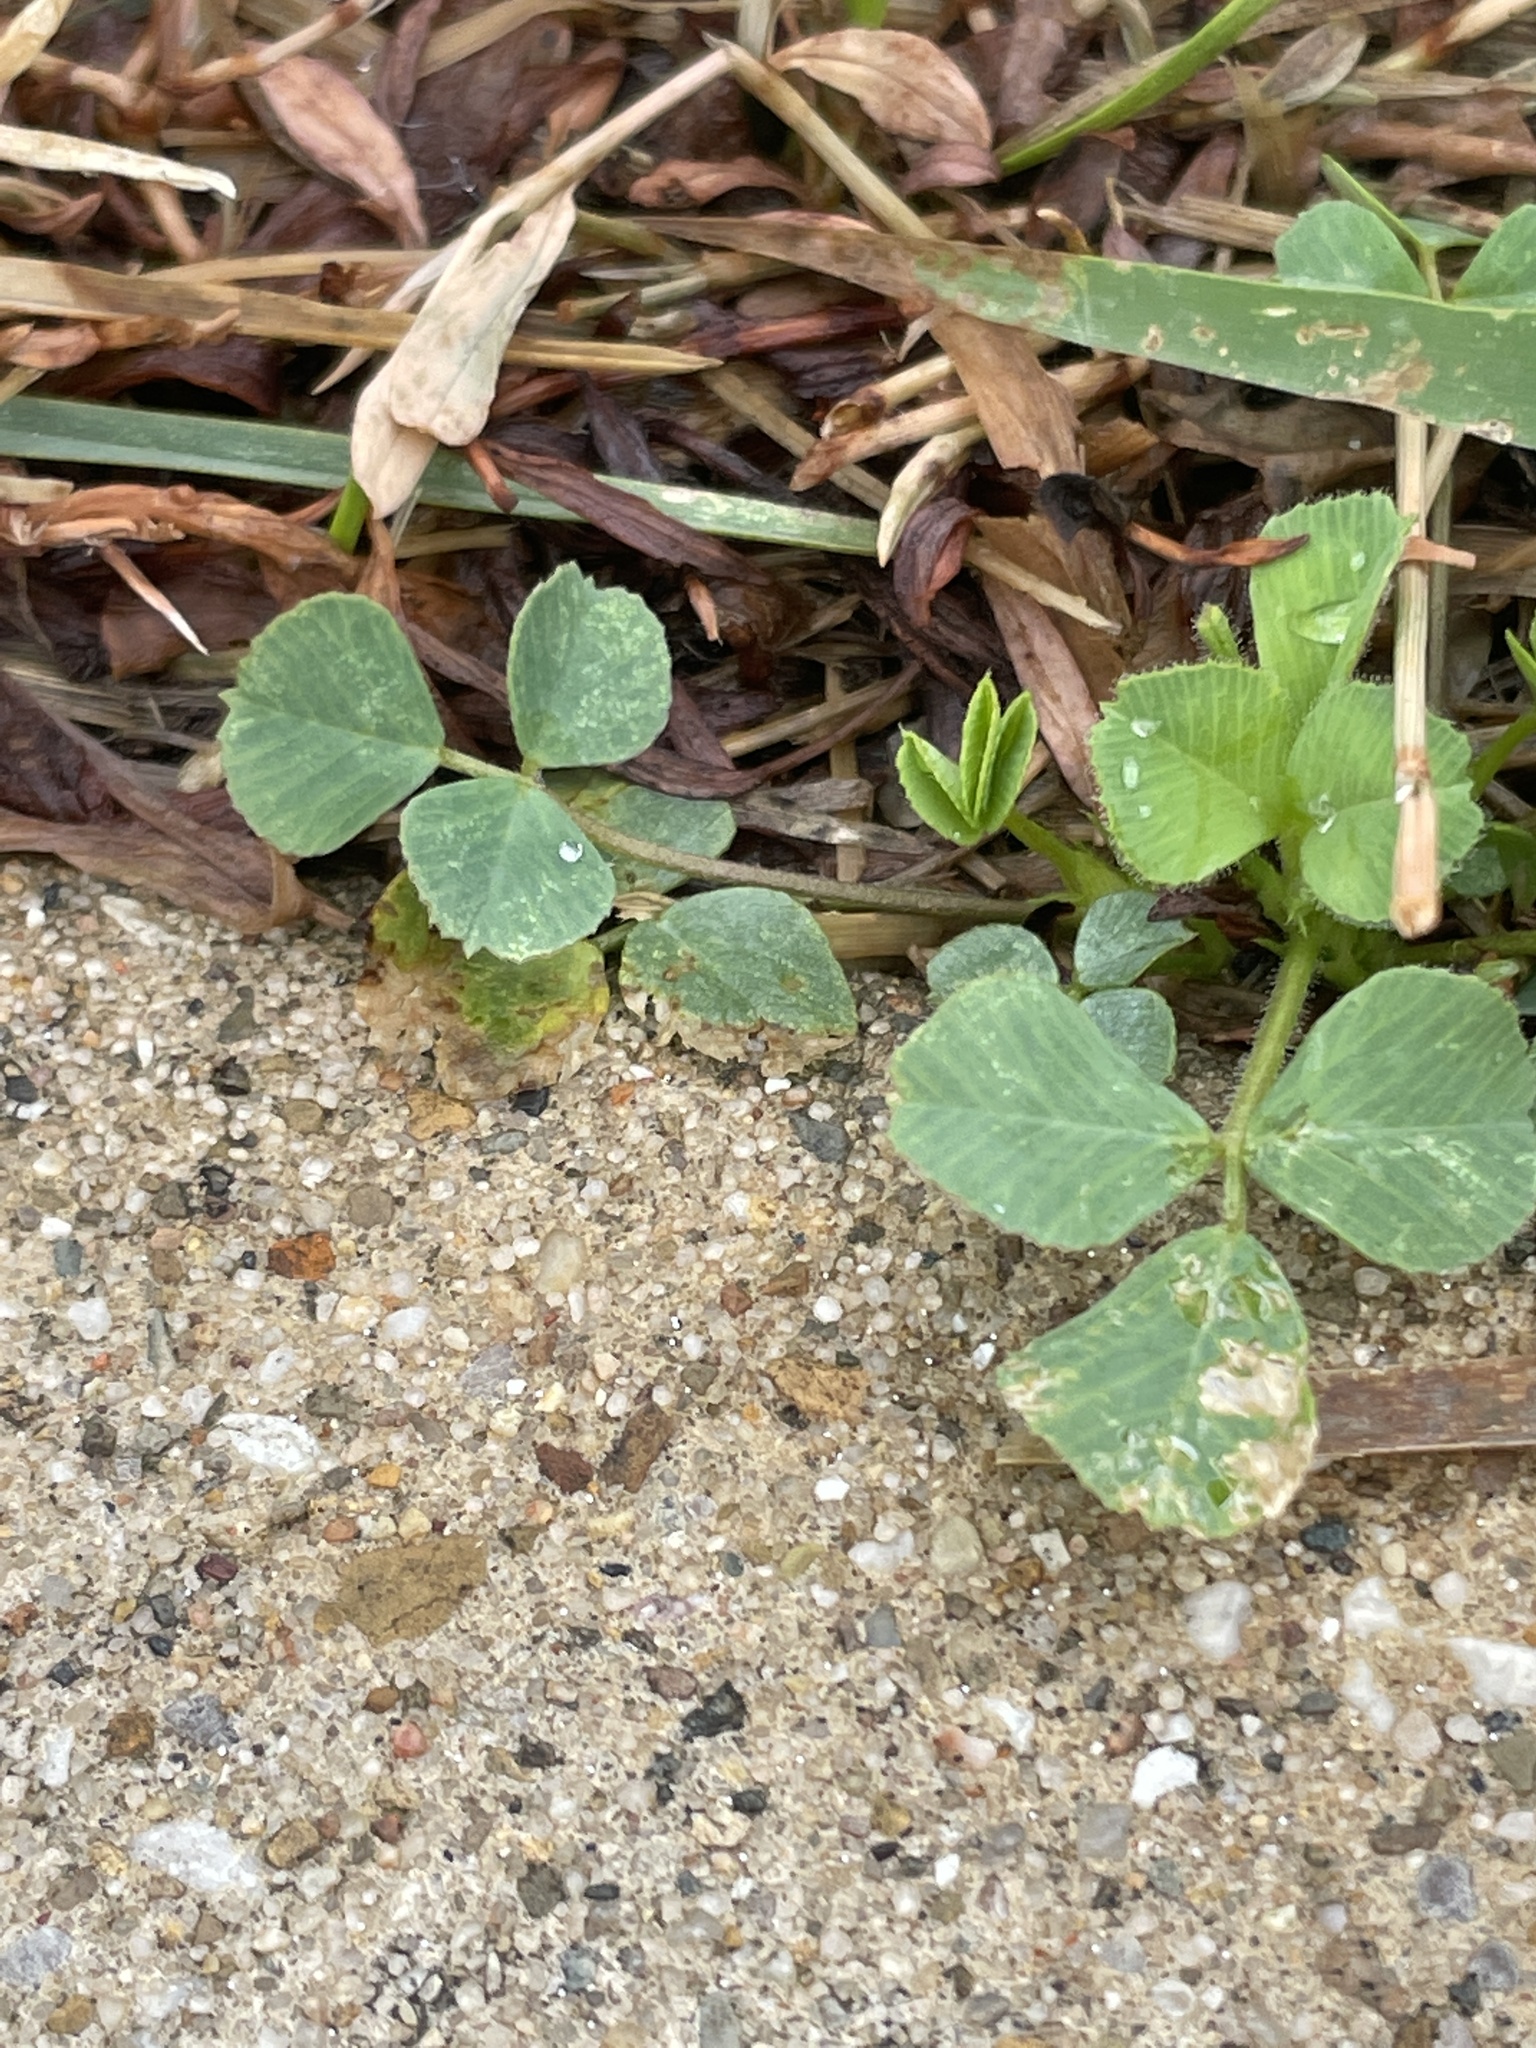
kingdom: Plantae
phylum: Tracheophyta
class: Magnoliopsida
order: Fabales
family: Fabaceae
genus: Trifolium
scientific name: Trifolium repens
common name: White clover
